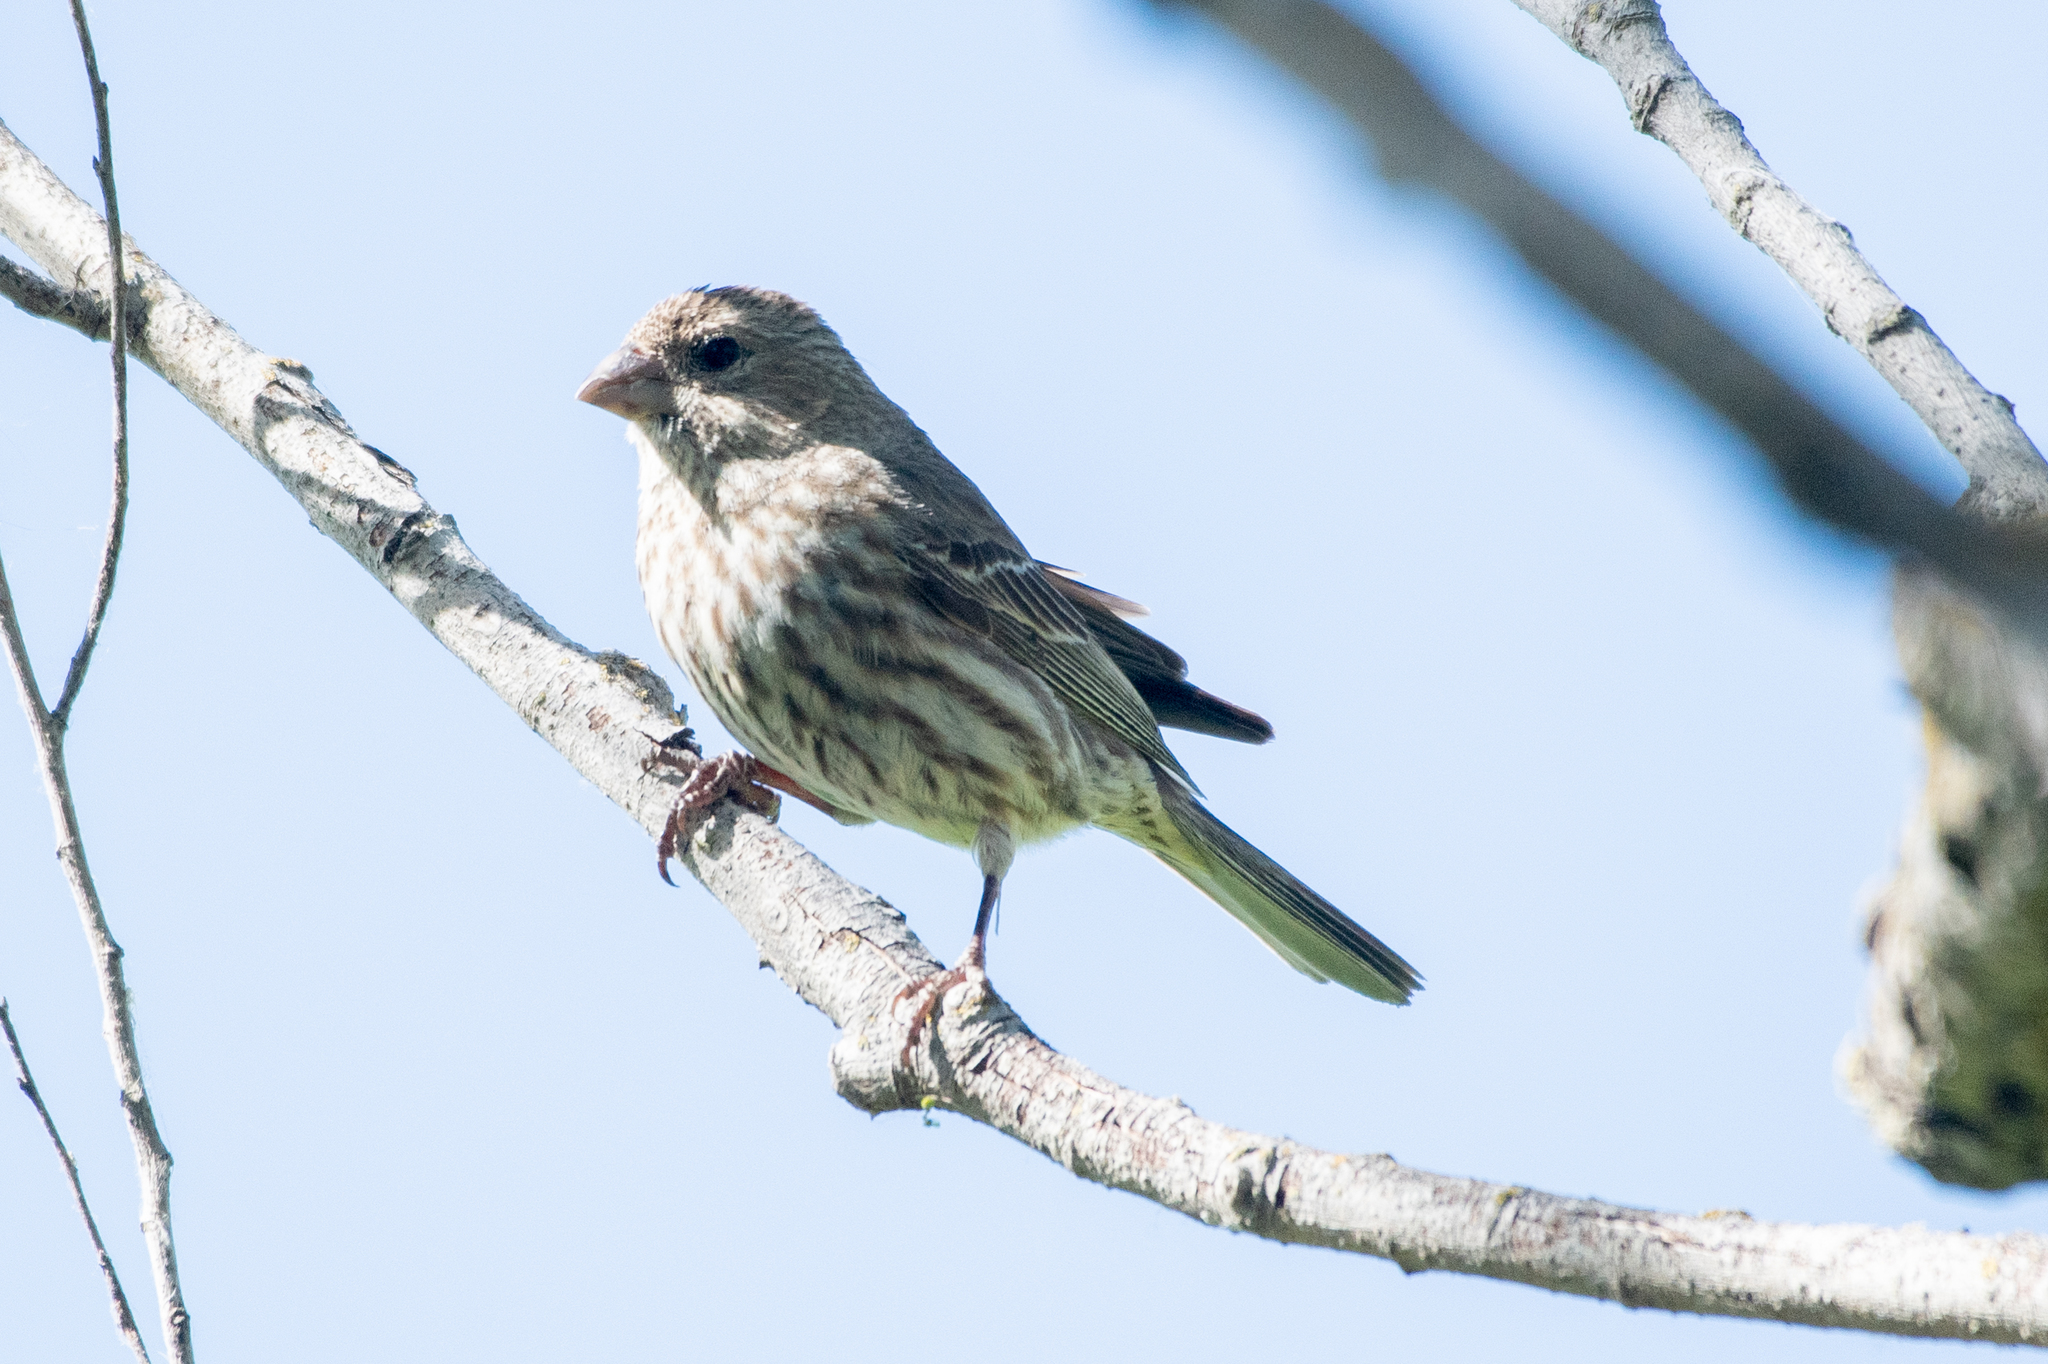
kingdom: Animalia
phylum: Chordata
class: Aves
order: Passeriformes
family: Fringillidae
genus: Haemorhous
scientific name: Haemorhous mexicanus
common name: House finch
